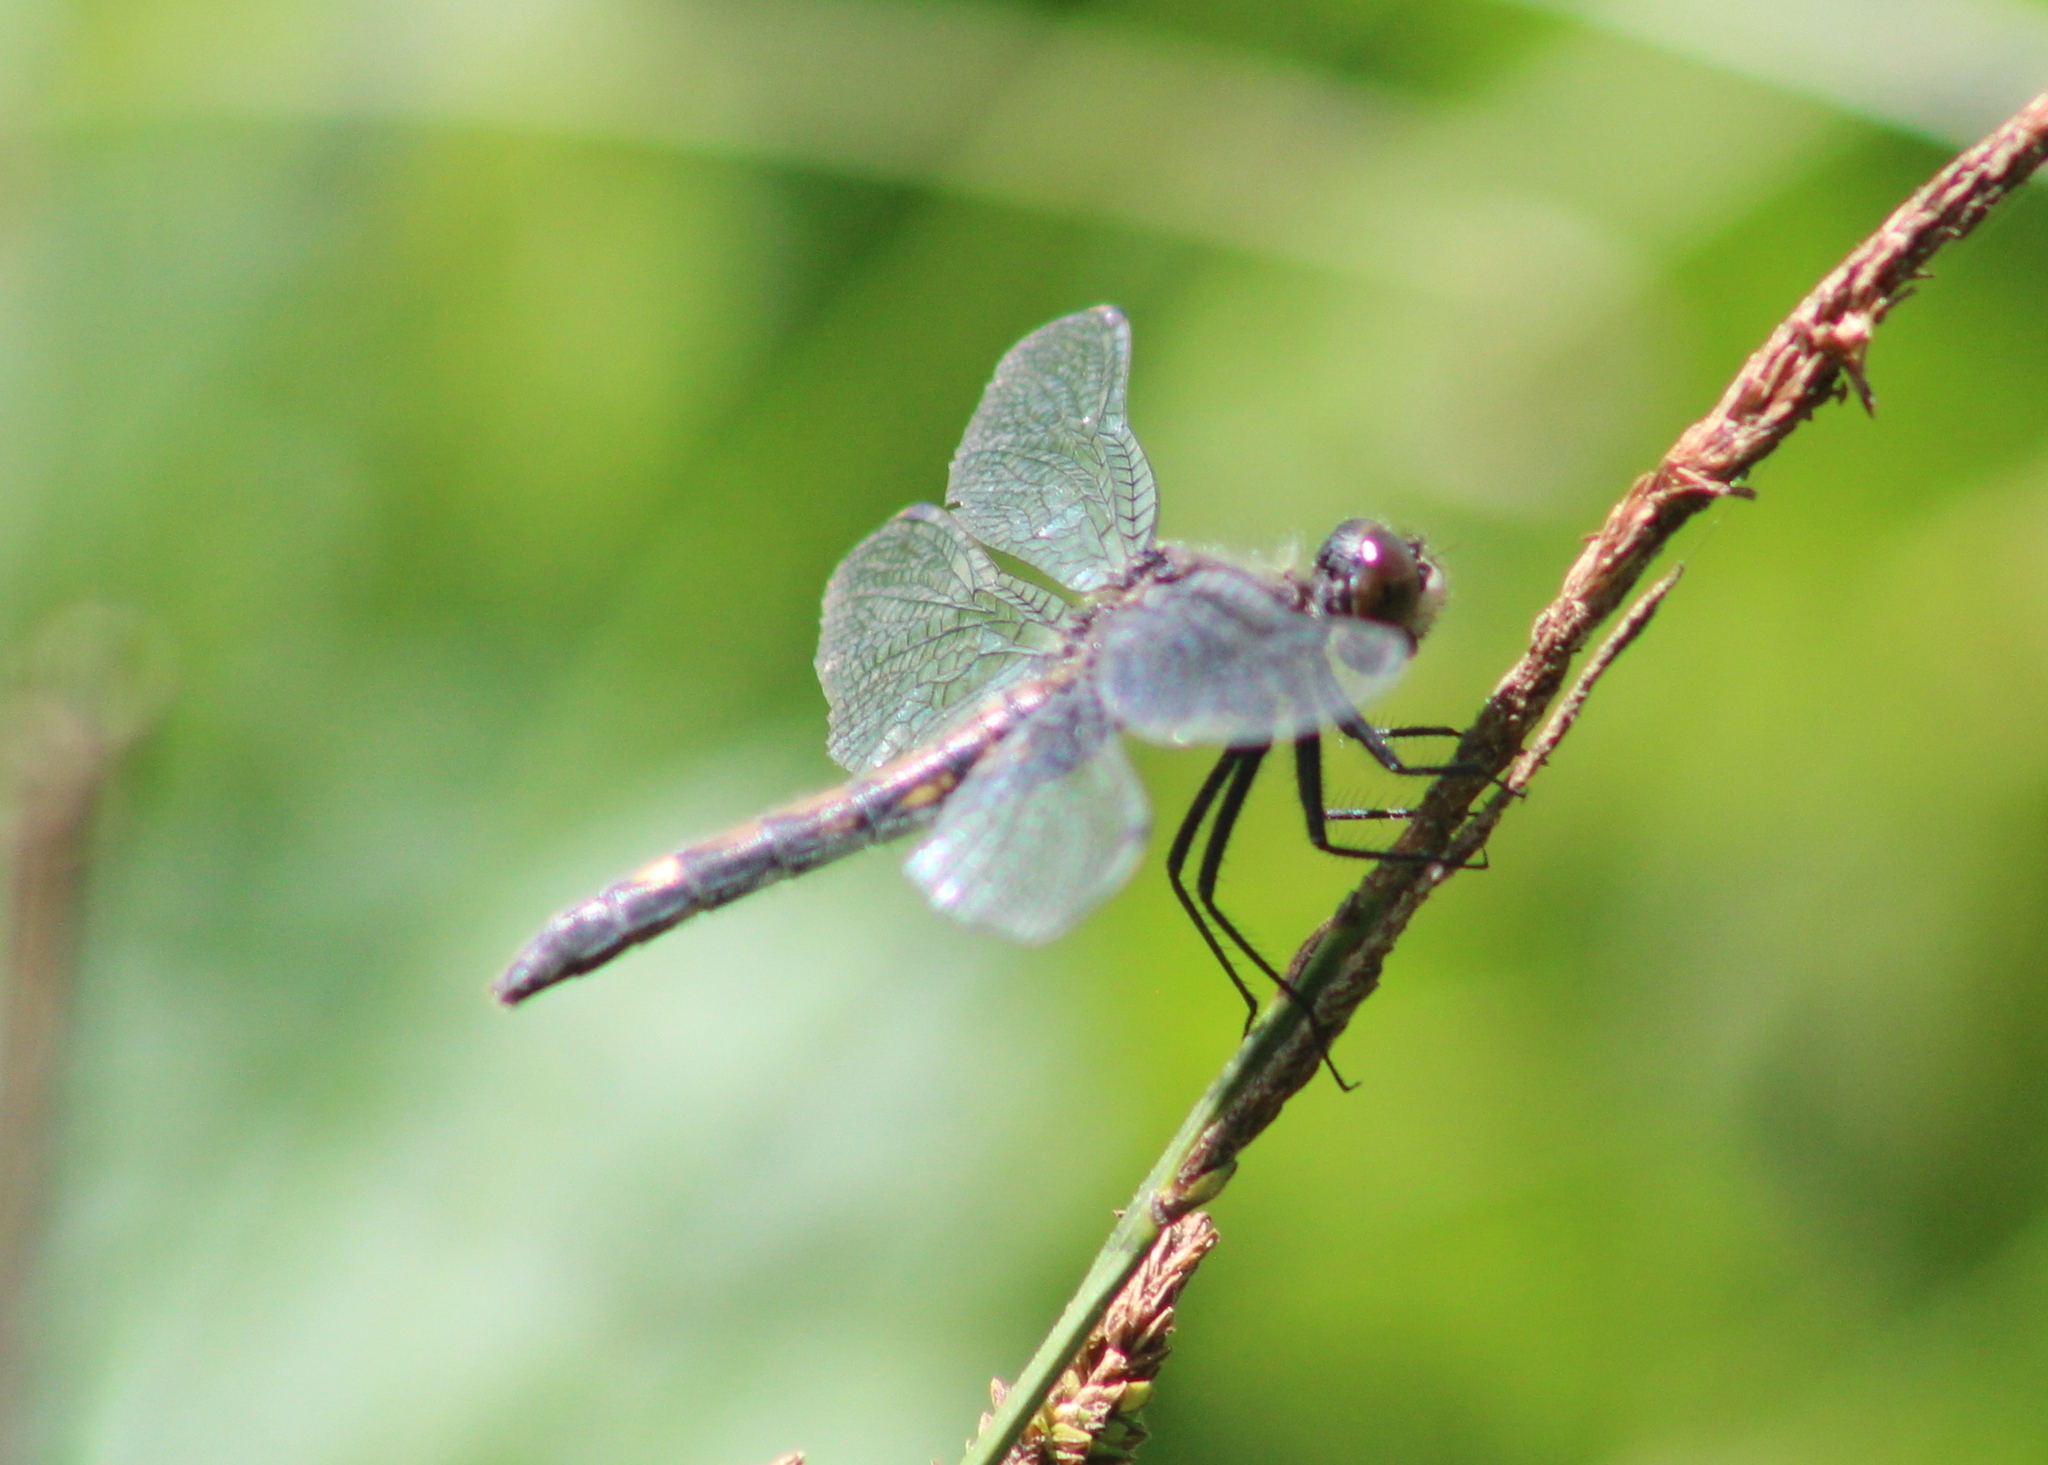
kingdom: Animalia
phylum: Arthropoda
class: Insecta
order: Odonata
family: Libellulidae
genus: Leucorrhinia
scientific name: Leucorrhinia intacta
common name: Dot-tailed whiteface
